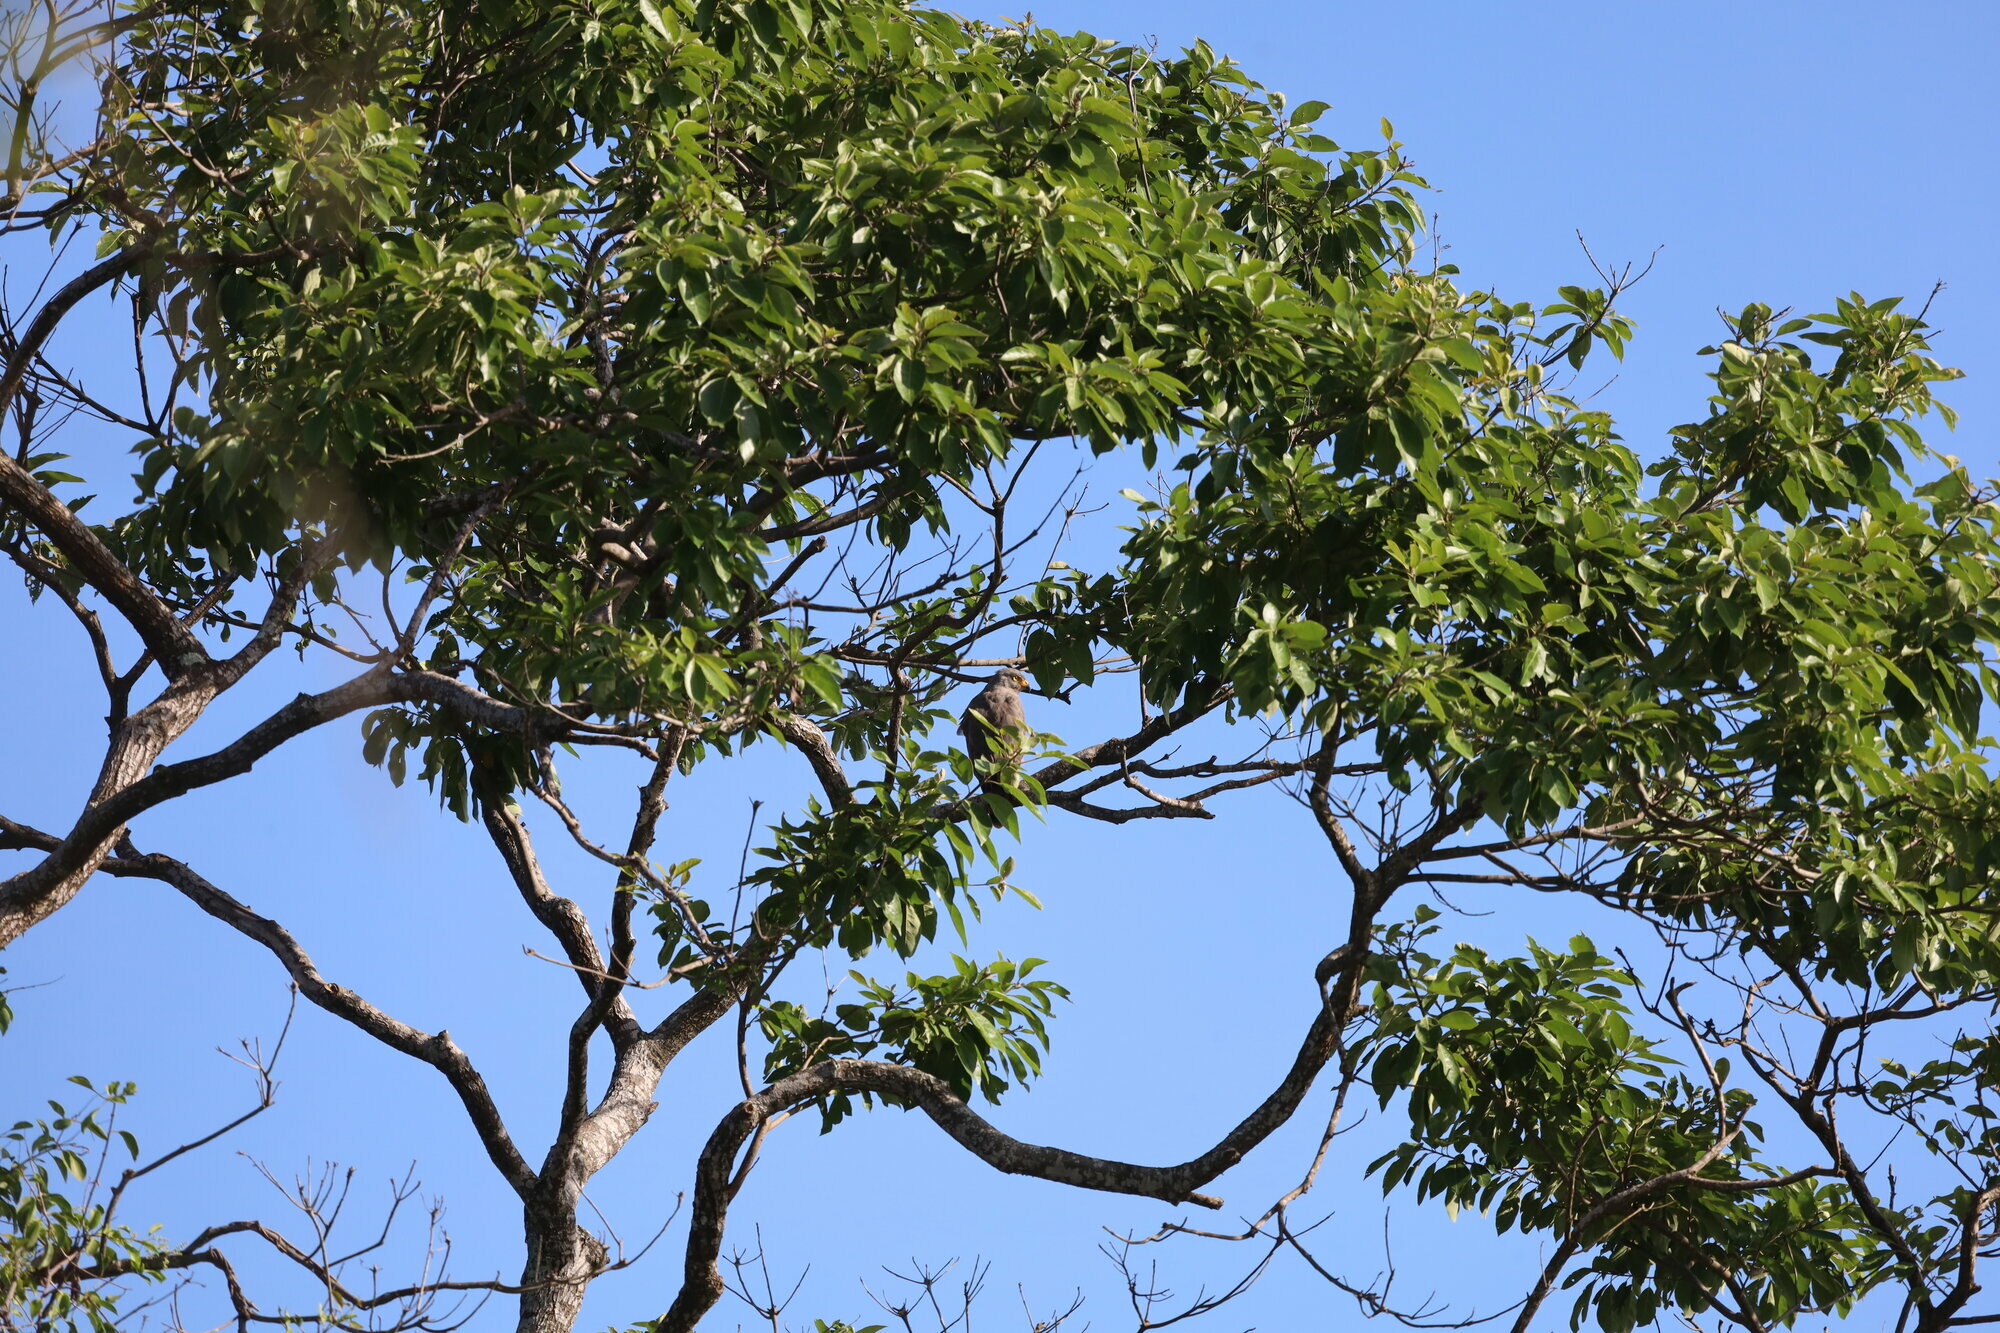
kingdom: Animalia
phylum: Chordata
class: Aves
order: Accipitriformes
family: Accipitridae
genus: Rupornis
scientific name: Rupornis magnirostris
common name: Roadside hawk
